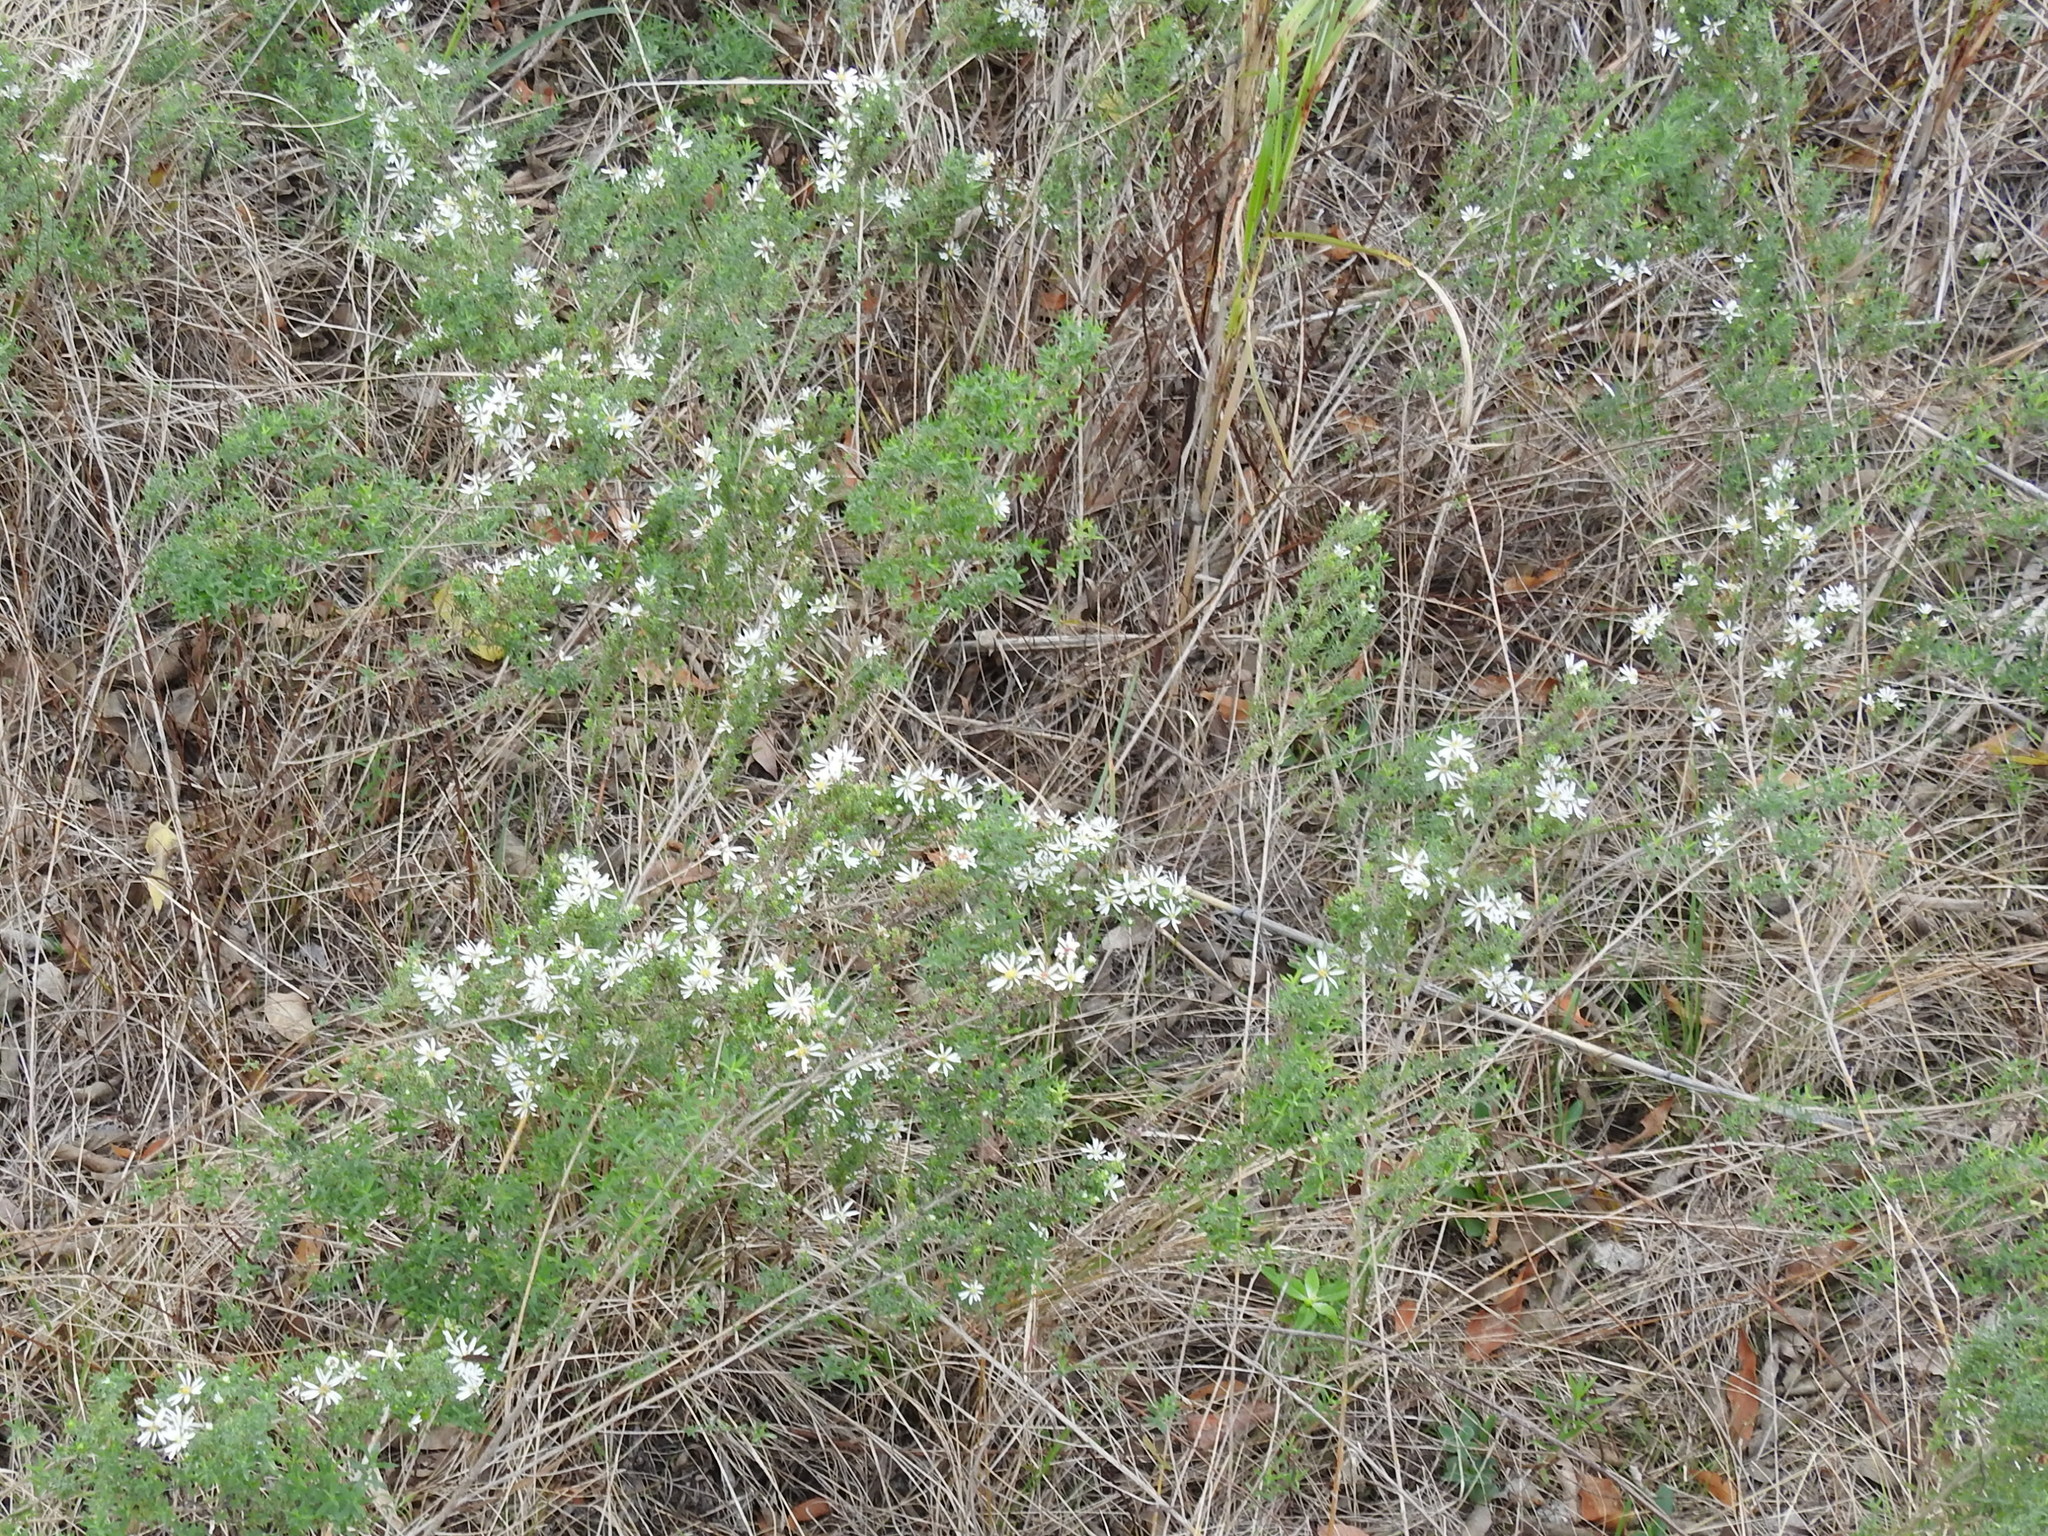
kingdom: Plantae
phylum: Tracheophyta
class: Magnoliopsida
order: Asterales
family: Asteraceae
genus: Symphyotrichum
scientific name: Symphyotrichum ericoides
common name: Heath aster
